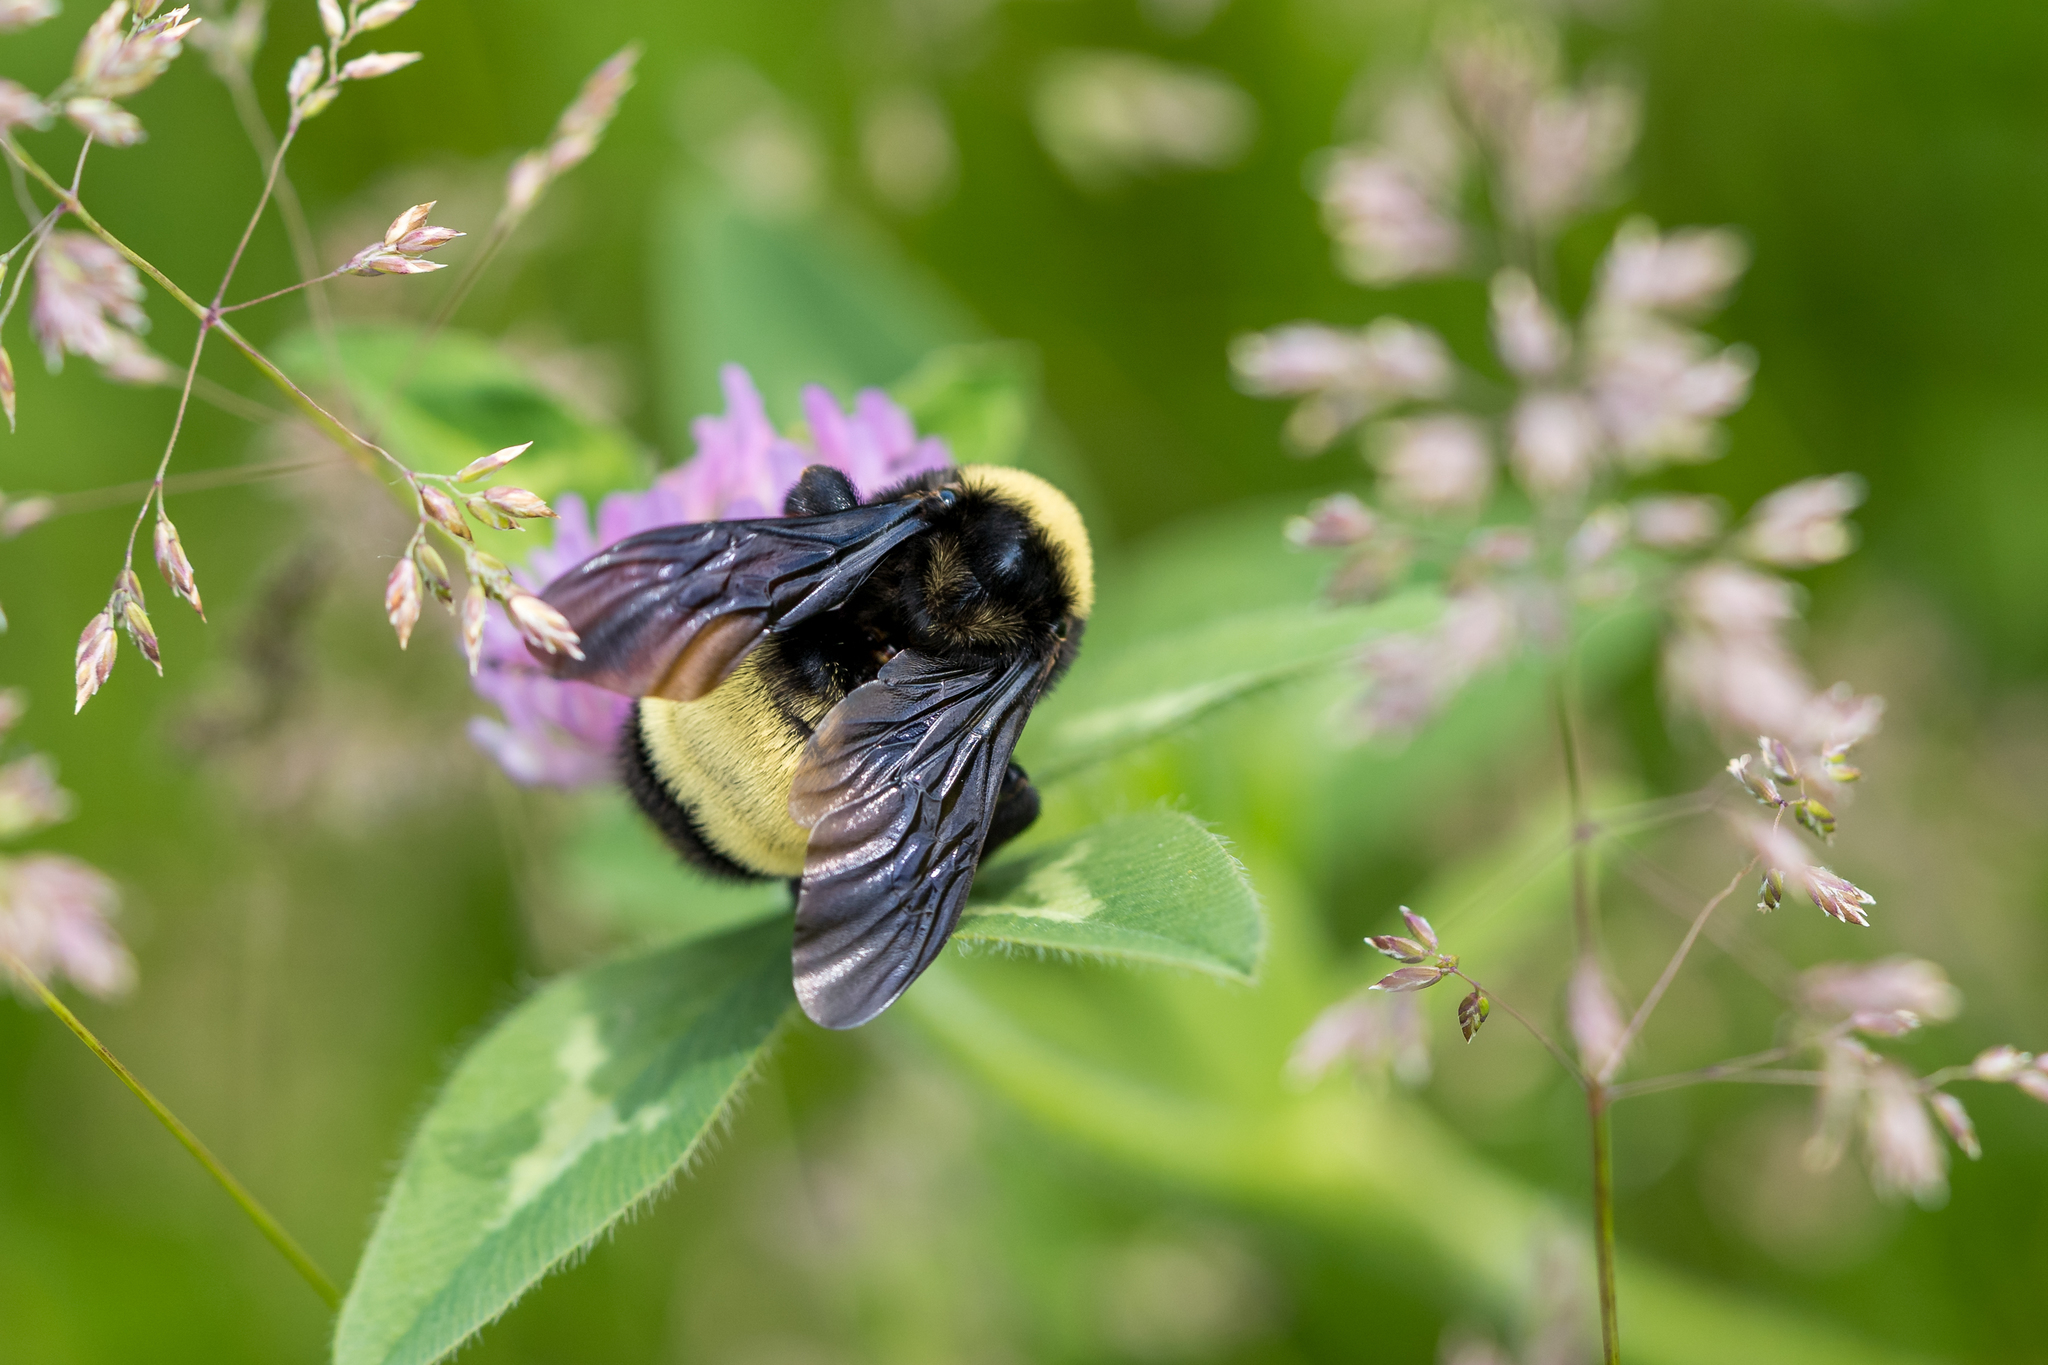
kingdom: Animalia
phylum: Arthropoda
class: Insecta
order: Hymenoptera
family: Apidae
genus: Bombus
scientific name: Bombus pensylvanicus
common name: Bumble bee
